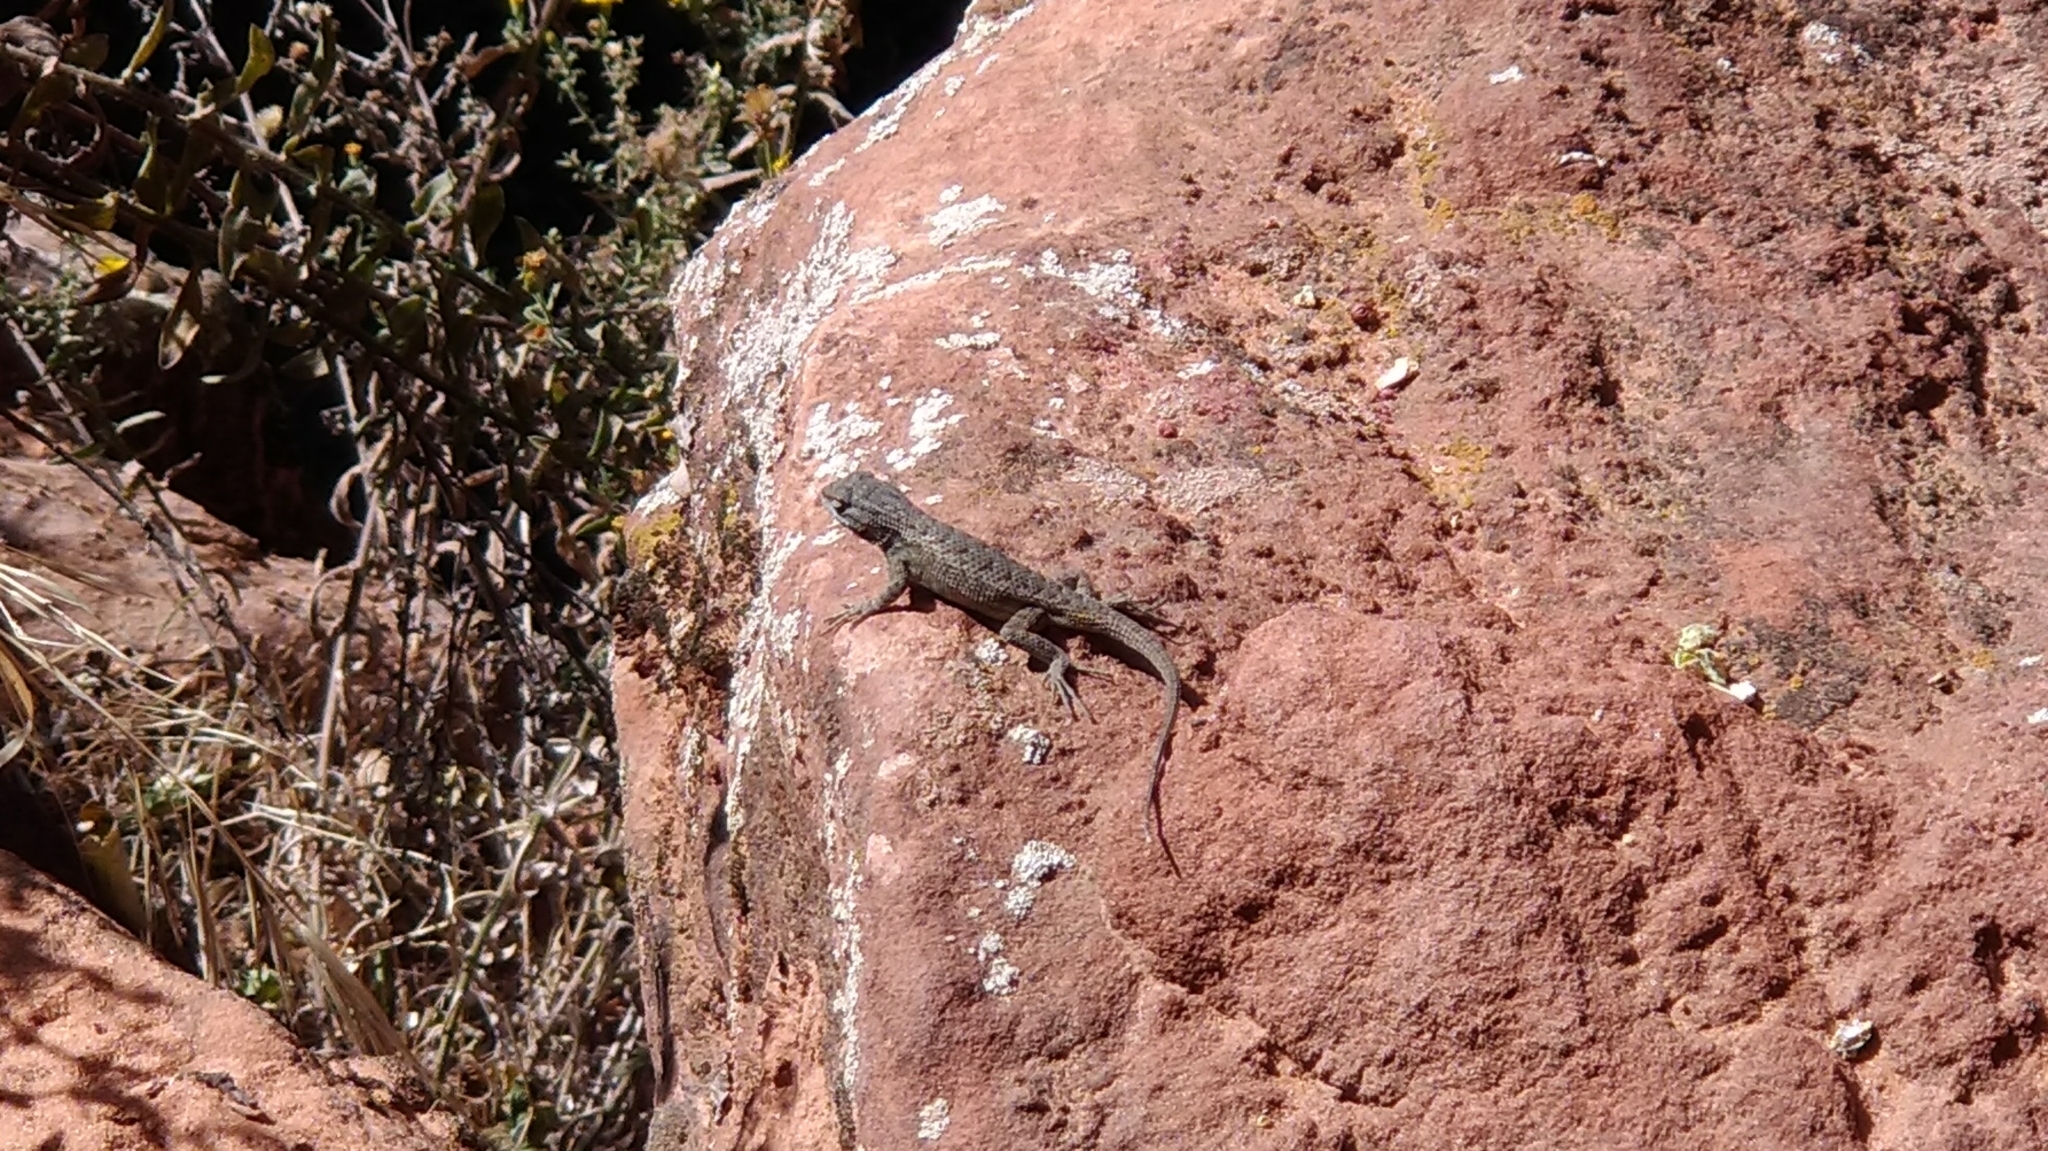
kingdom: Animalia
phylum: Chordata
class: Squamata
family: Phrynosomatidae
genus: Sceloporus
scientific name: Sceloporus tristichus
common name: Plateau fence lizard
